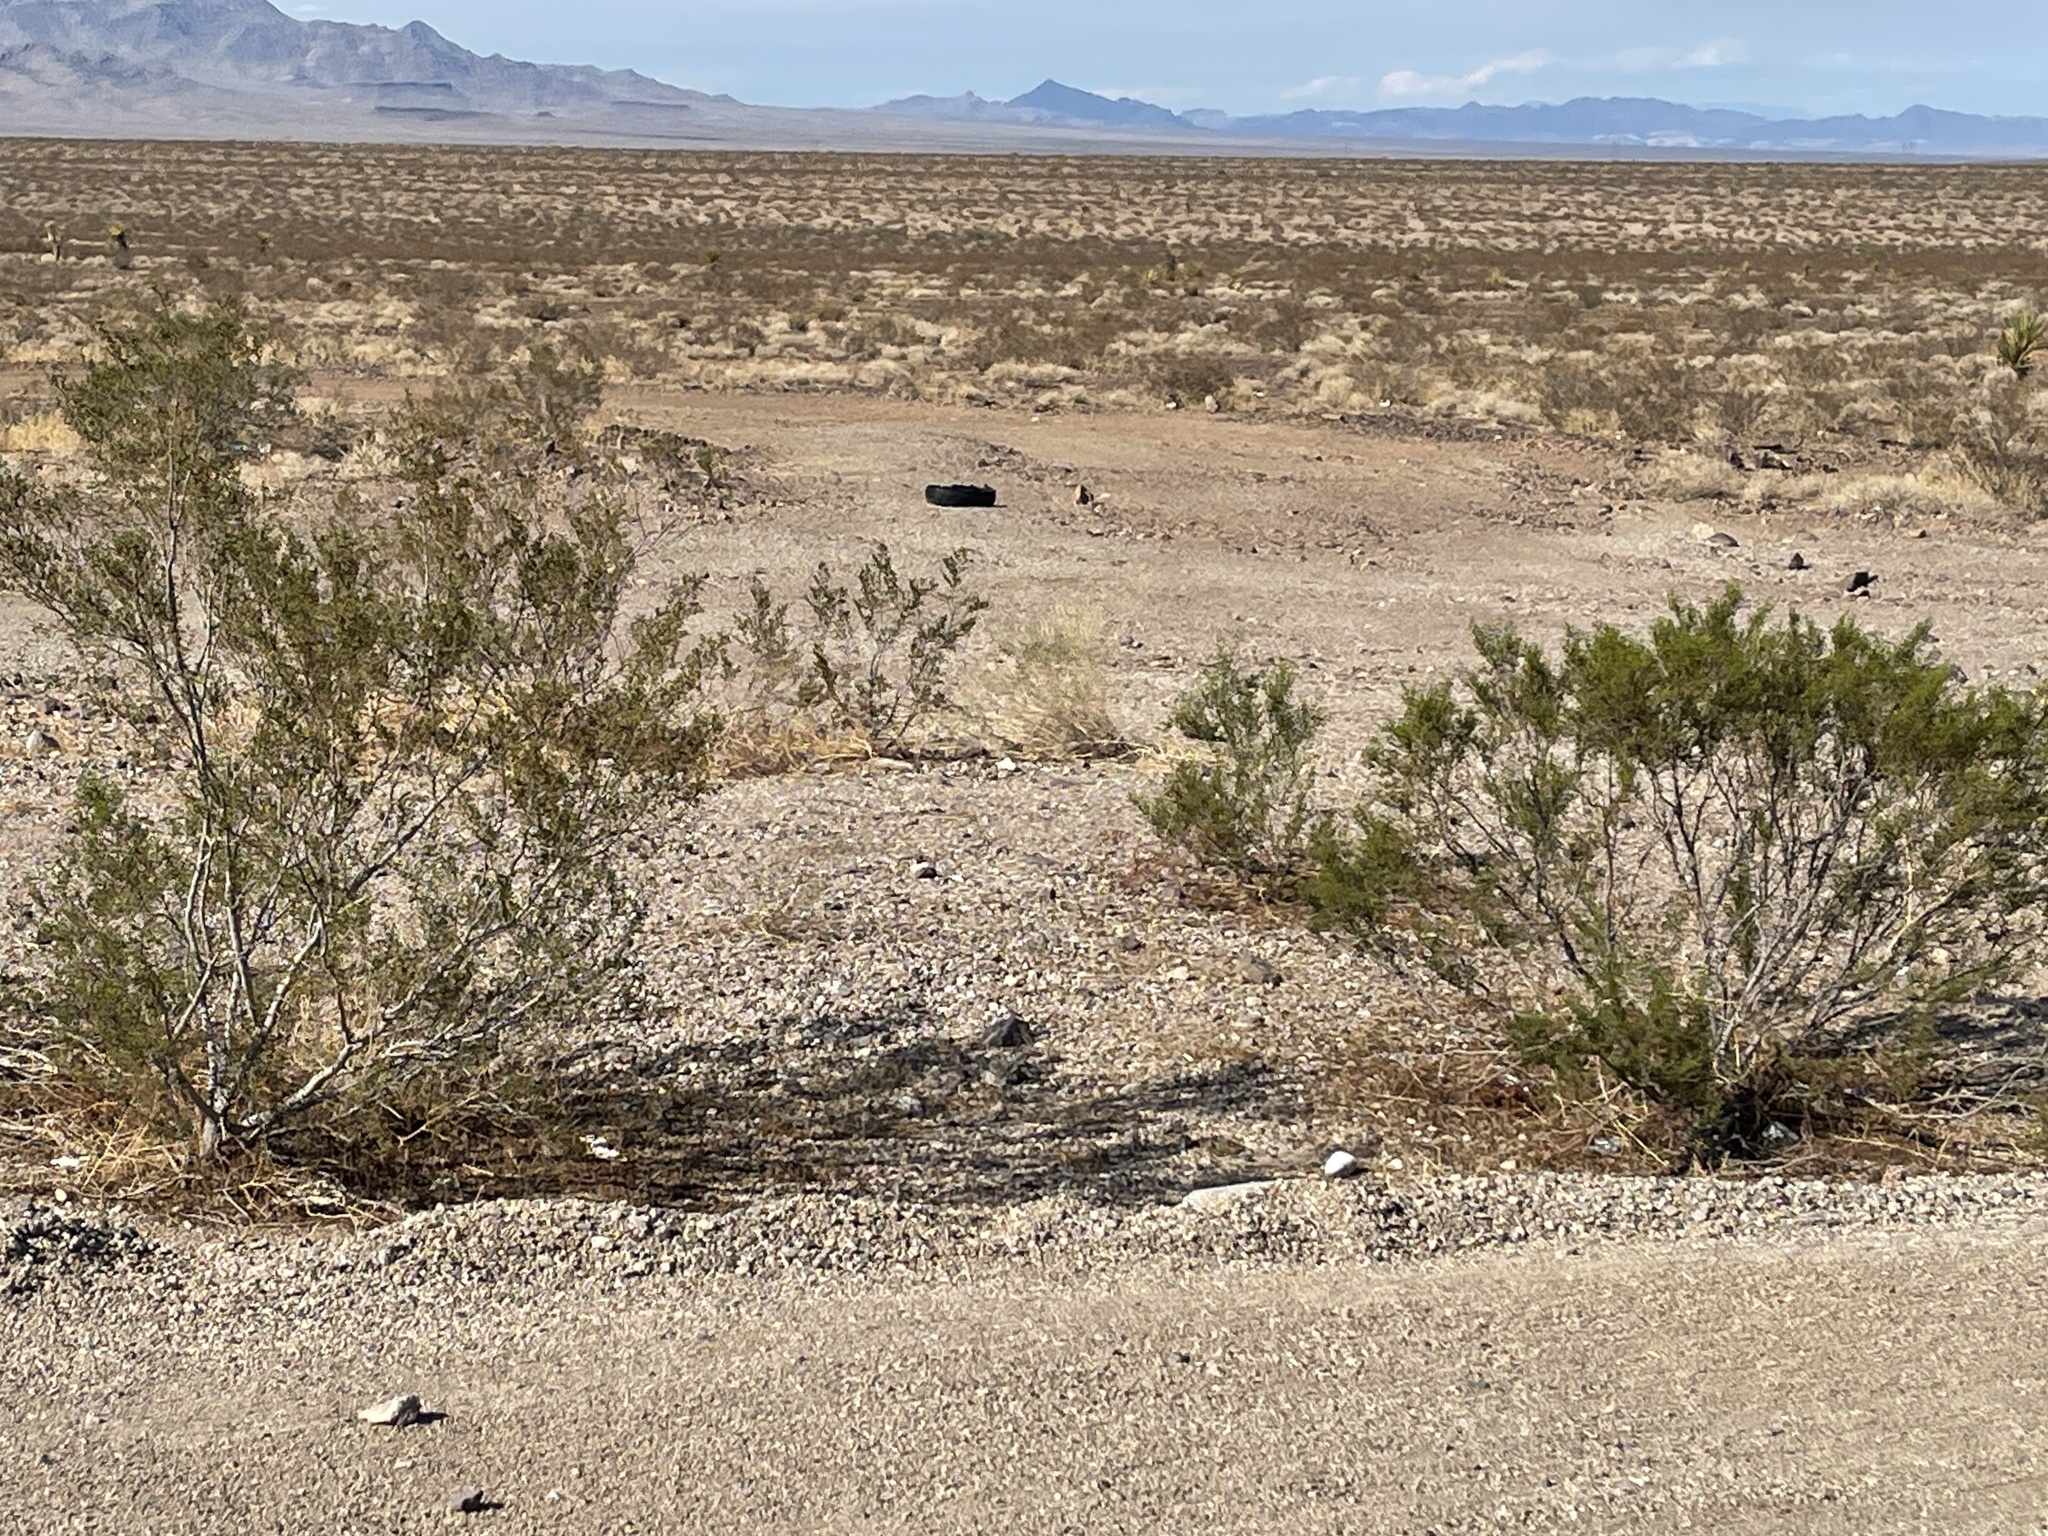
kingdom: Plantae
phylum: Tracheophyta
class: Magnoliopsida
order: Zygophyllales
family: Zygophyllaceae
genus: Larrea
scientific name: Larrea tridentata
